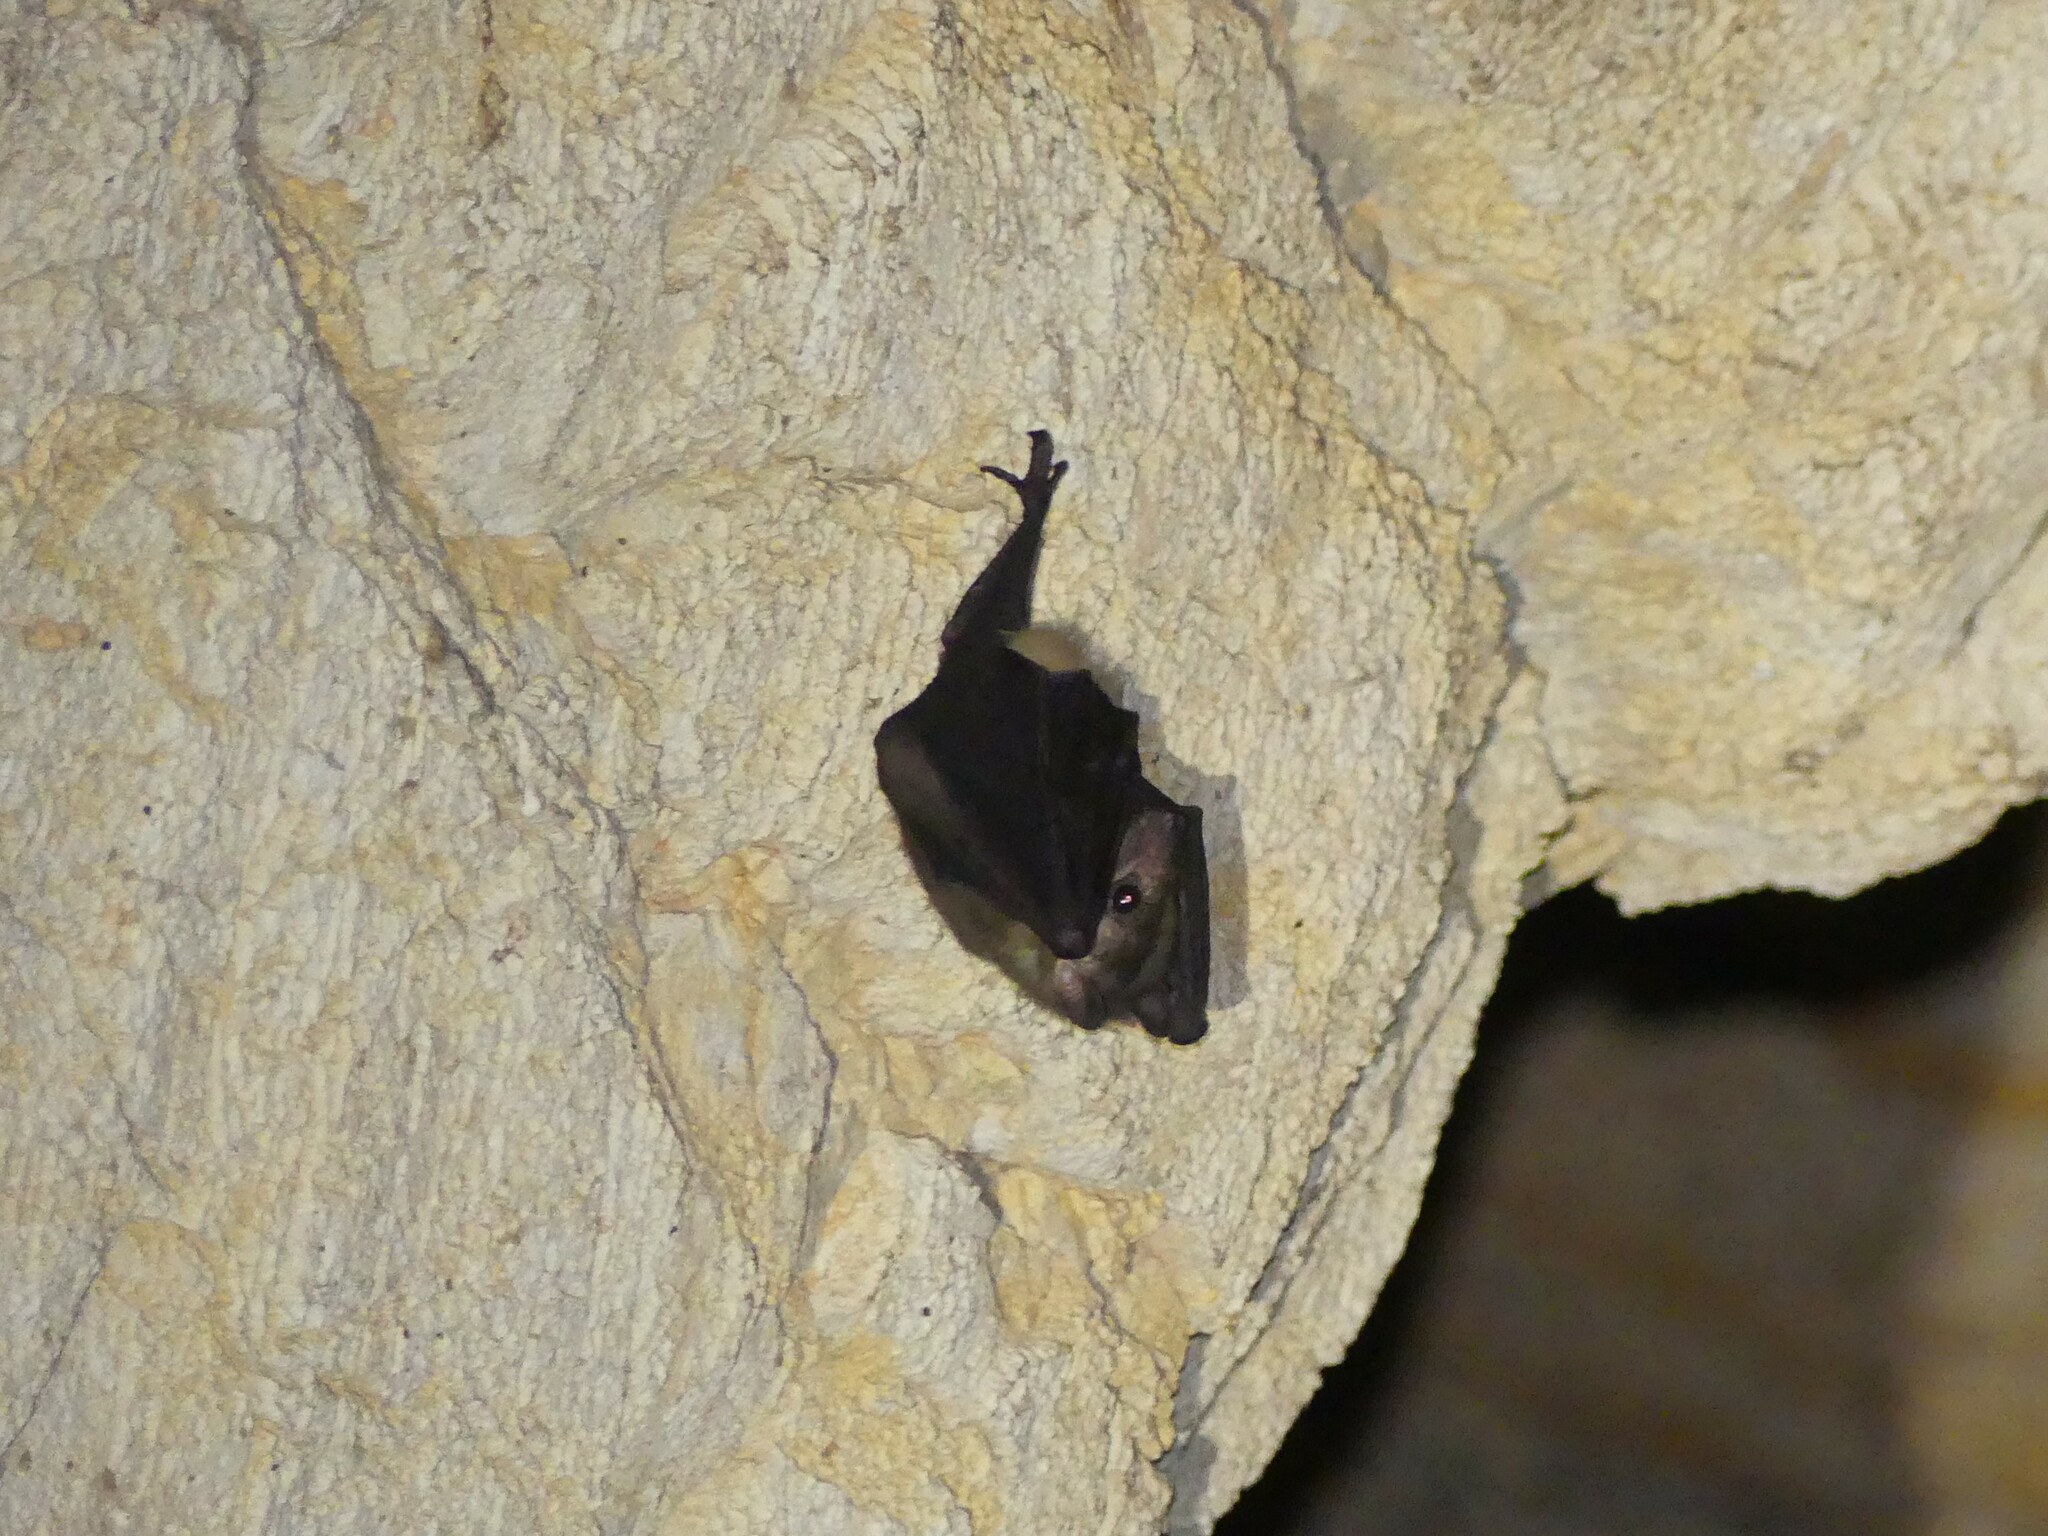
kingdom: Animalia
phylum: Chordata
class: Mammalia
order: Chiroptera
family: Pteropodidae
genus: Rousettus
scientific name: Rousettus madagascariensis
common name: Madagascan rousette
